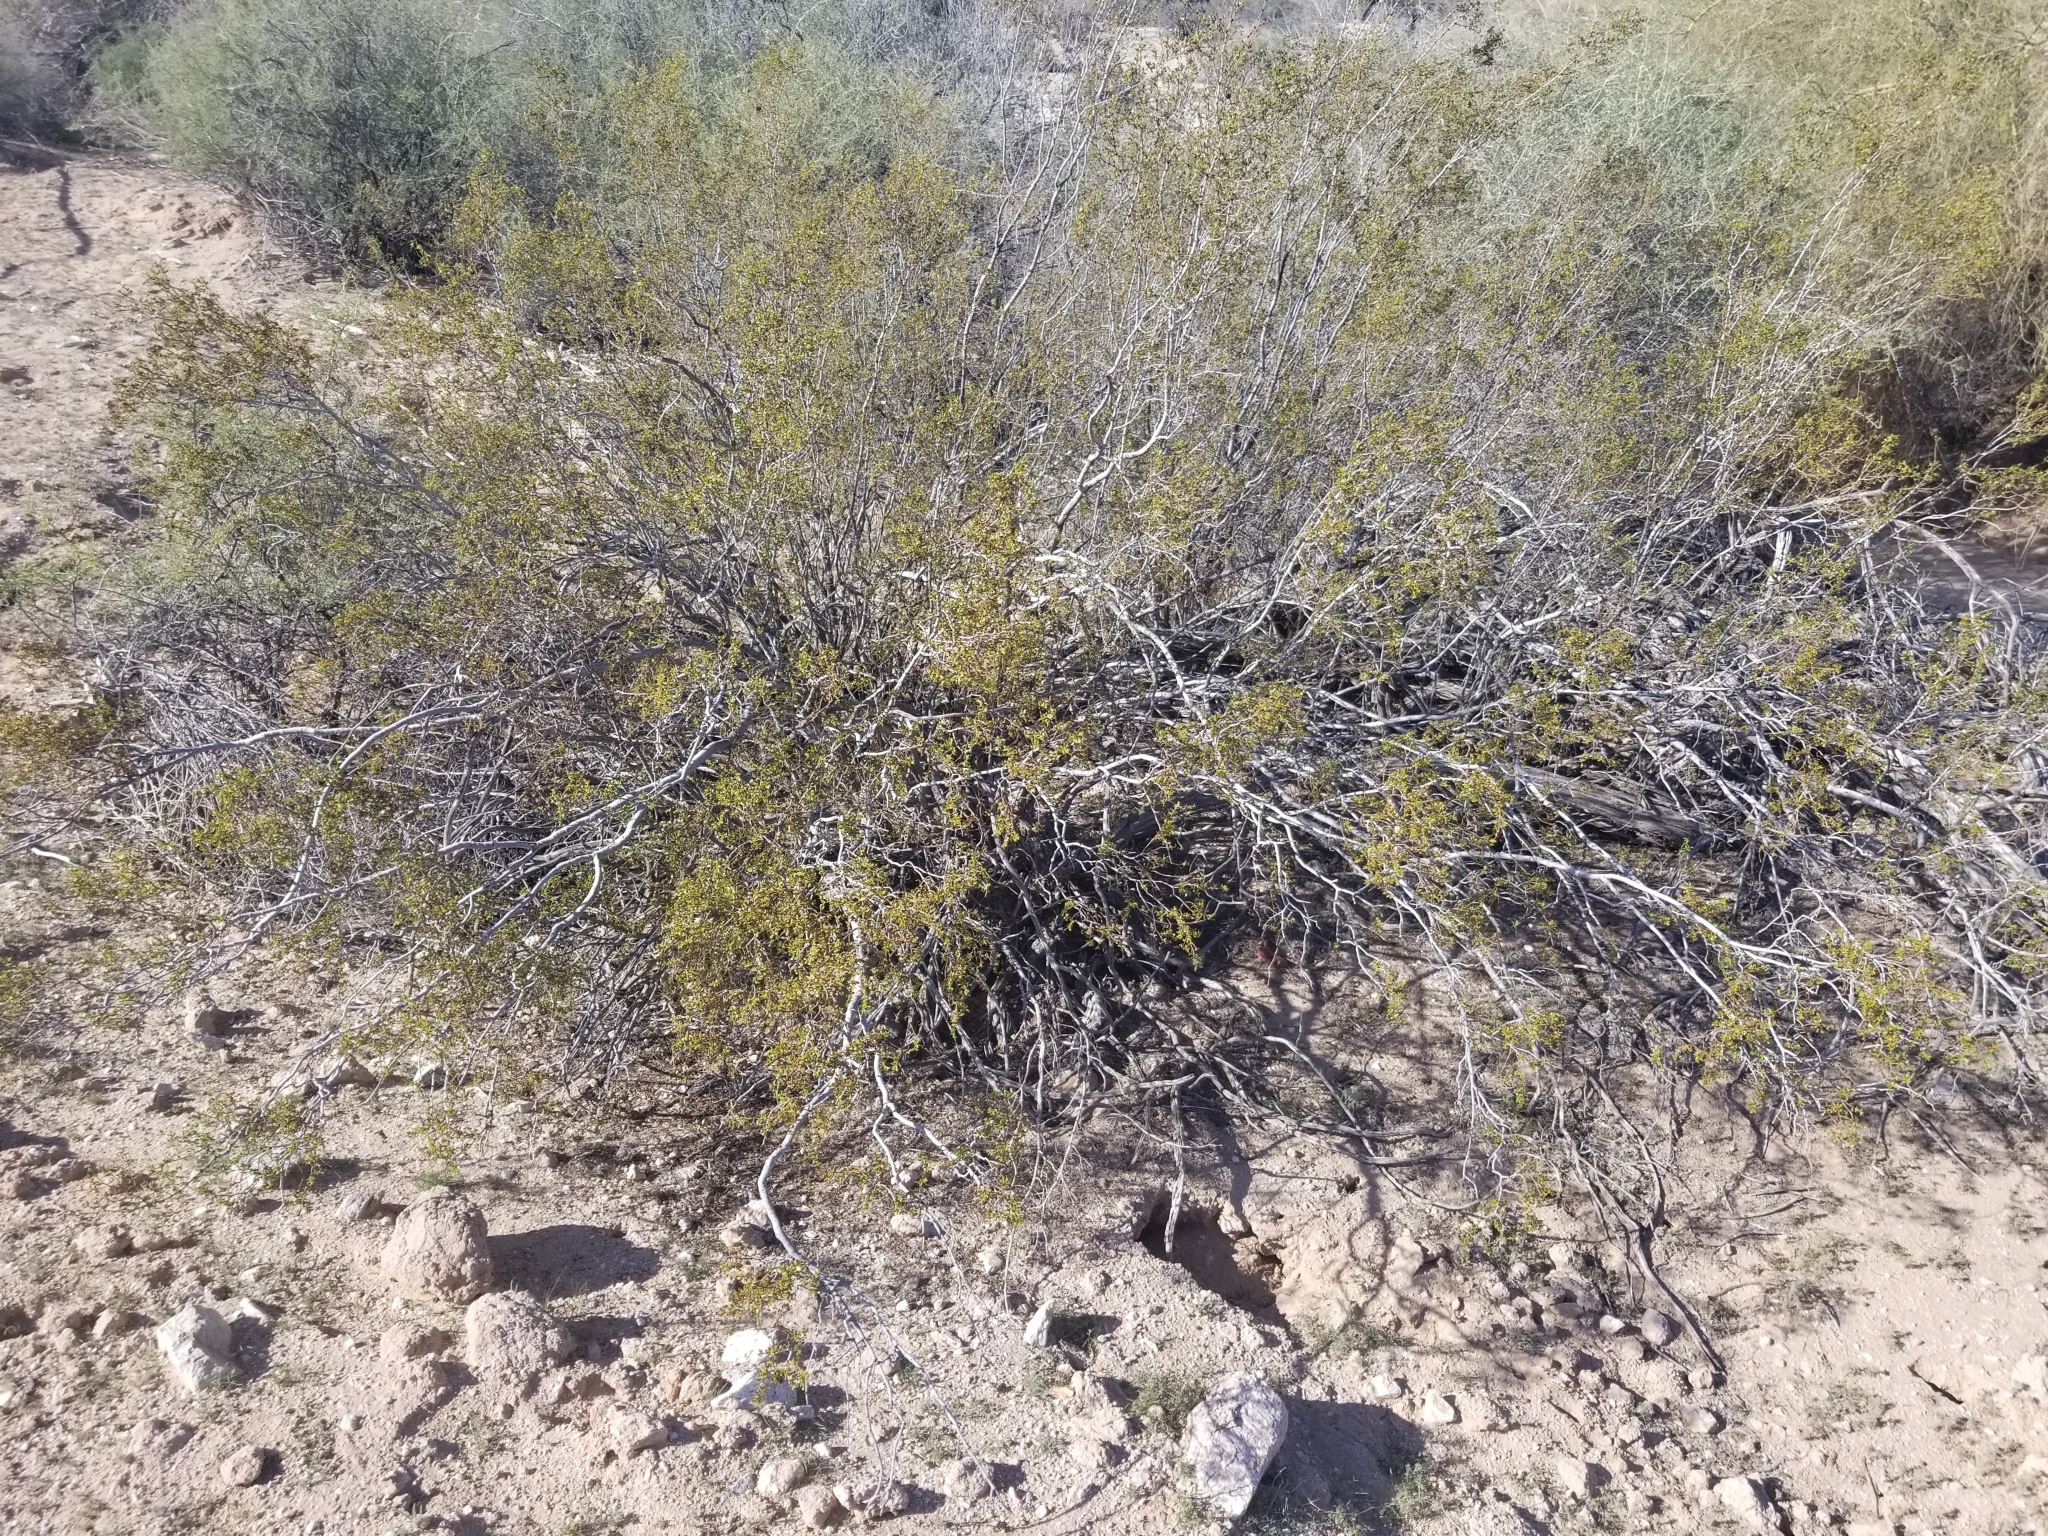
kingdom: Plantae
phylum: Tracheophyta
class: Magnoliopsida
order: Zygophyllales
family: Zygophyllaceae
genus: Larrea
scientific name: Larrea tridentata
